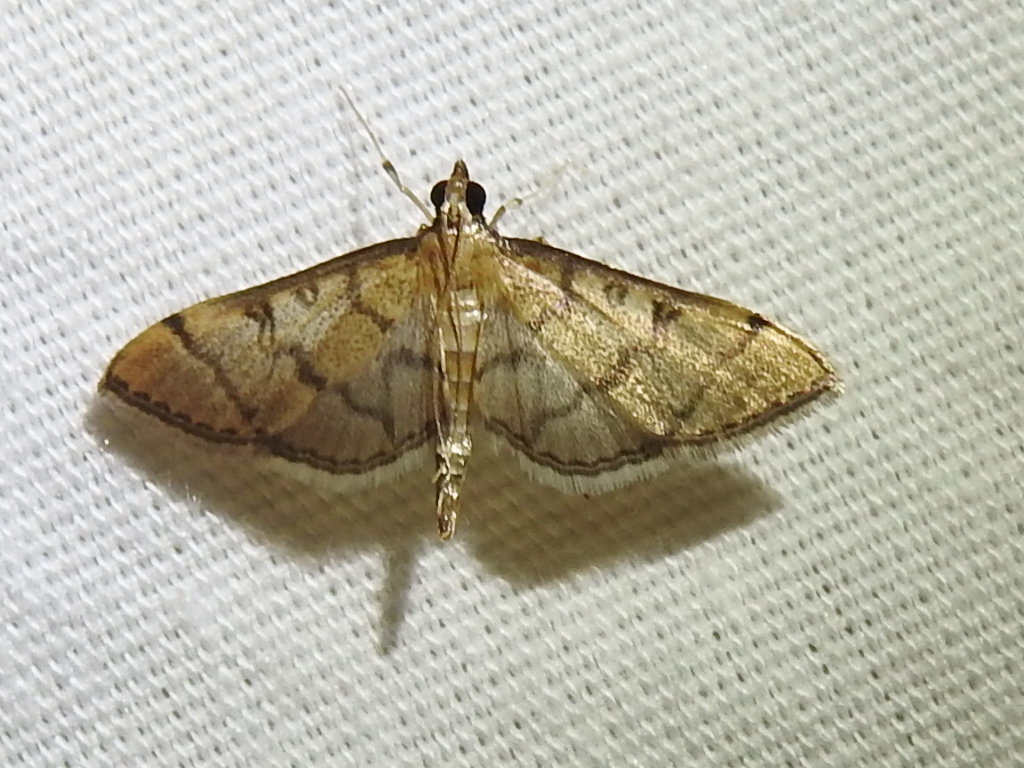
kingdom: Animalia
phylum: Arthropoda
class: Insecta
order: Lepidoptera
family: Crambidae
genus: Lamprosema
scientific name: Lamprosema Blepharomastix ranalis
